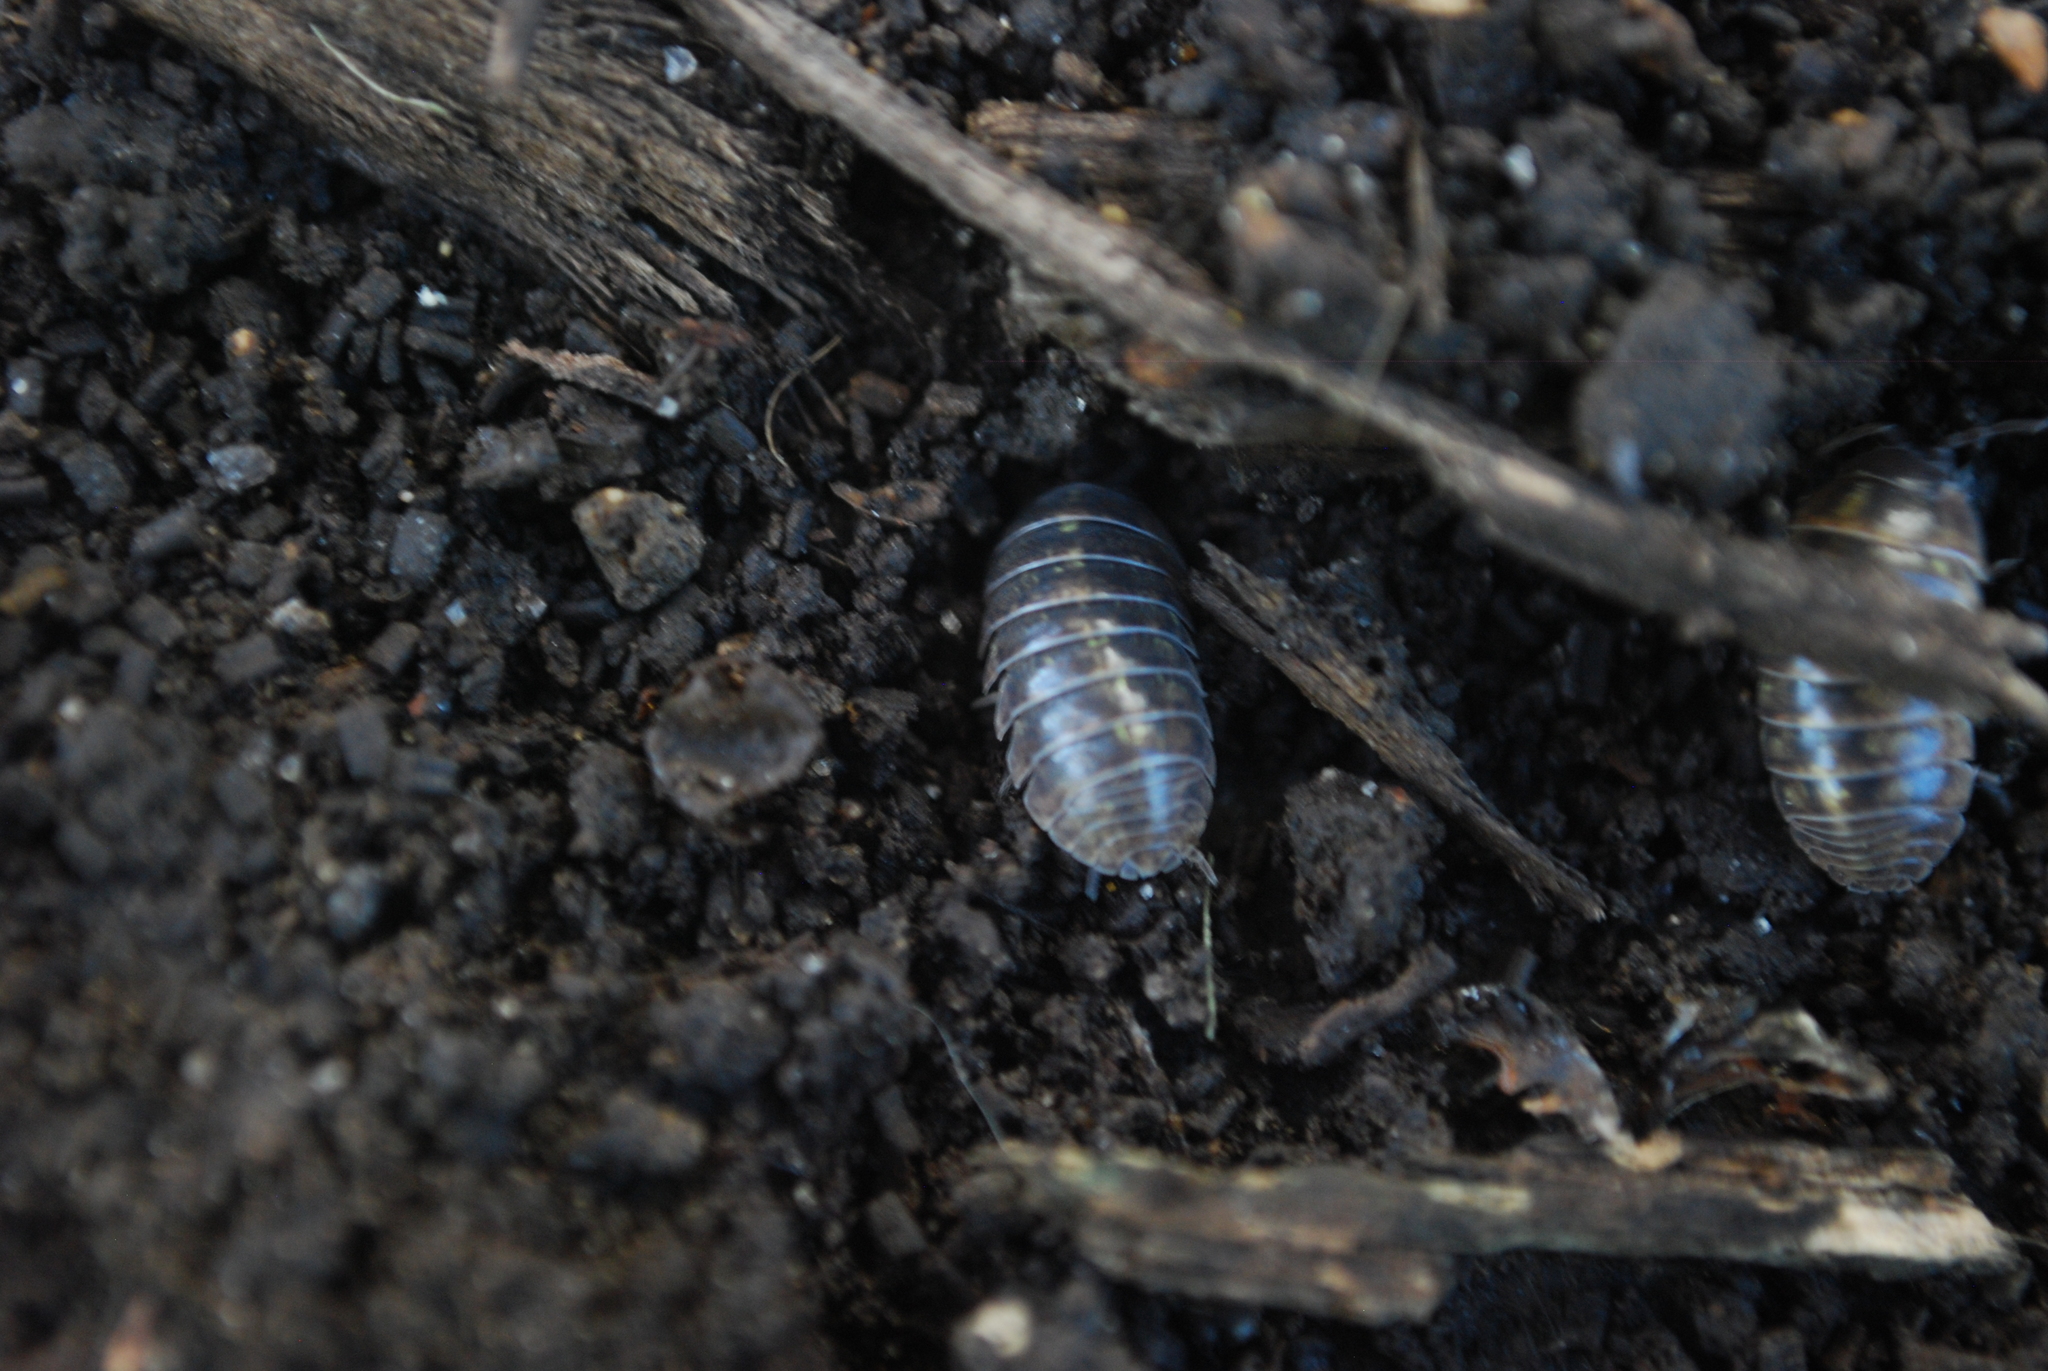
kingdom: Animalia
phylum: Arthropoda
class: Malacostraca
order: Isopoda
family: Armadillidiidae
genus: Armadillidium
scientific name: Armadillidium vulgare
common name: Common pill woodlouse
